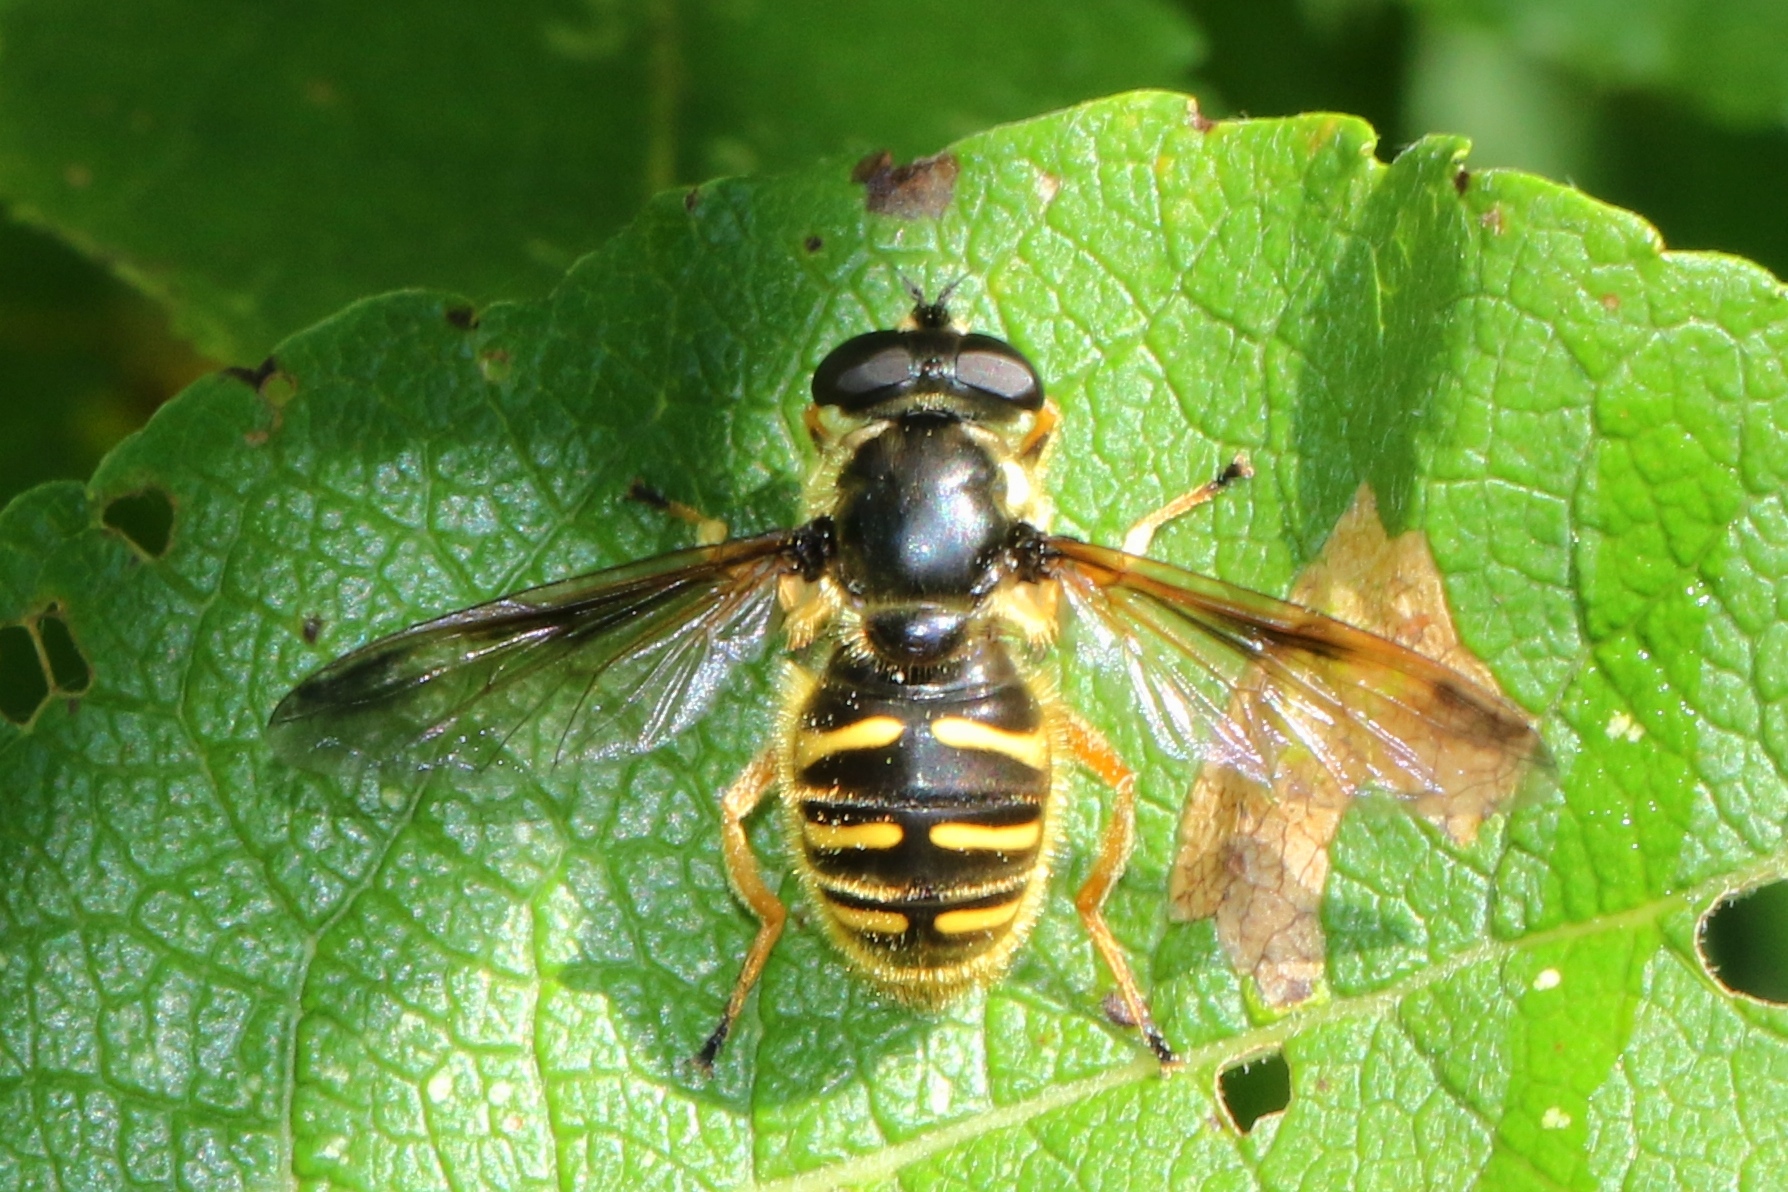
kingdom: Animalia
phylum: Arthropoda
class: Insecta
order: Diptera
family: Syrphidae
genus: Sericomyia
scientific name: Sericomyia chrysotoxoides
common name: Oblique-banded pond fly
